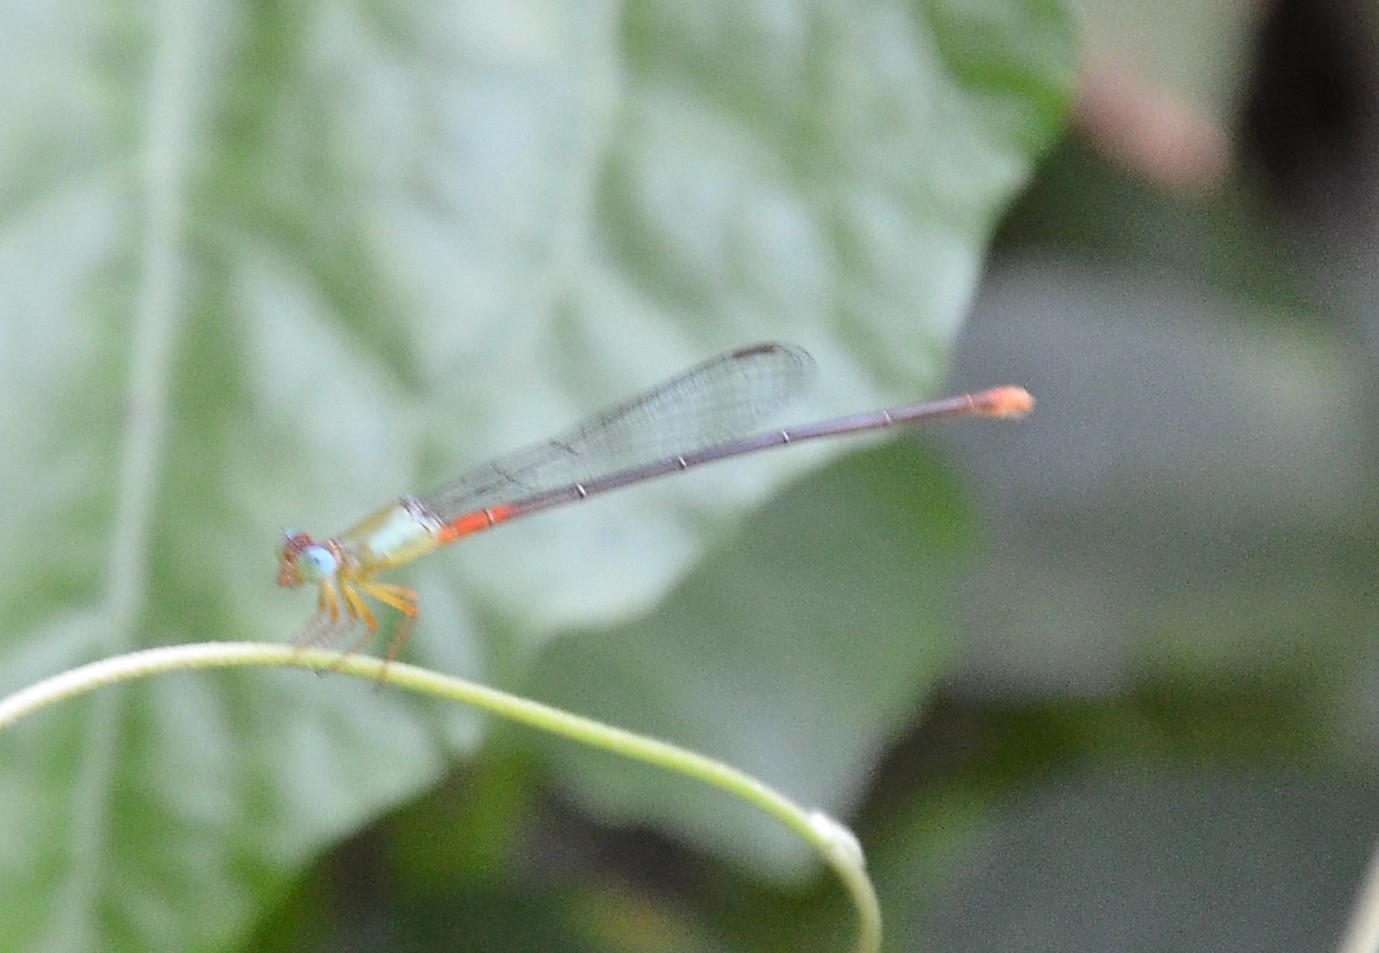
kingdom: Animalia
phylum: Arthropoda
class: Insecta
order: Odonata
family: Coenagrionidae
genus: Ceriagrion
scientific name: Ceriagrion cerinorubellum
